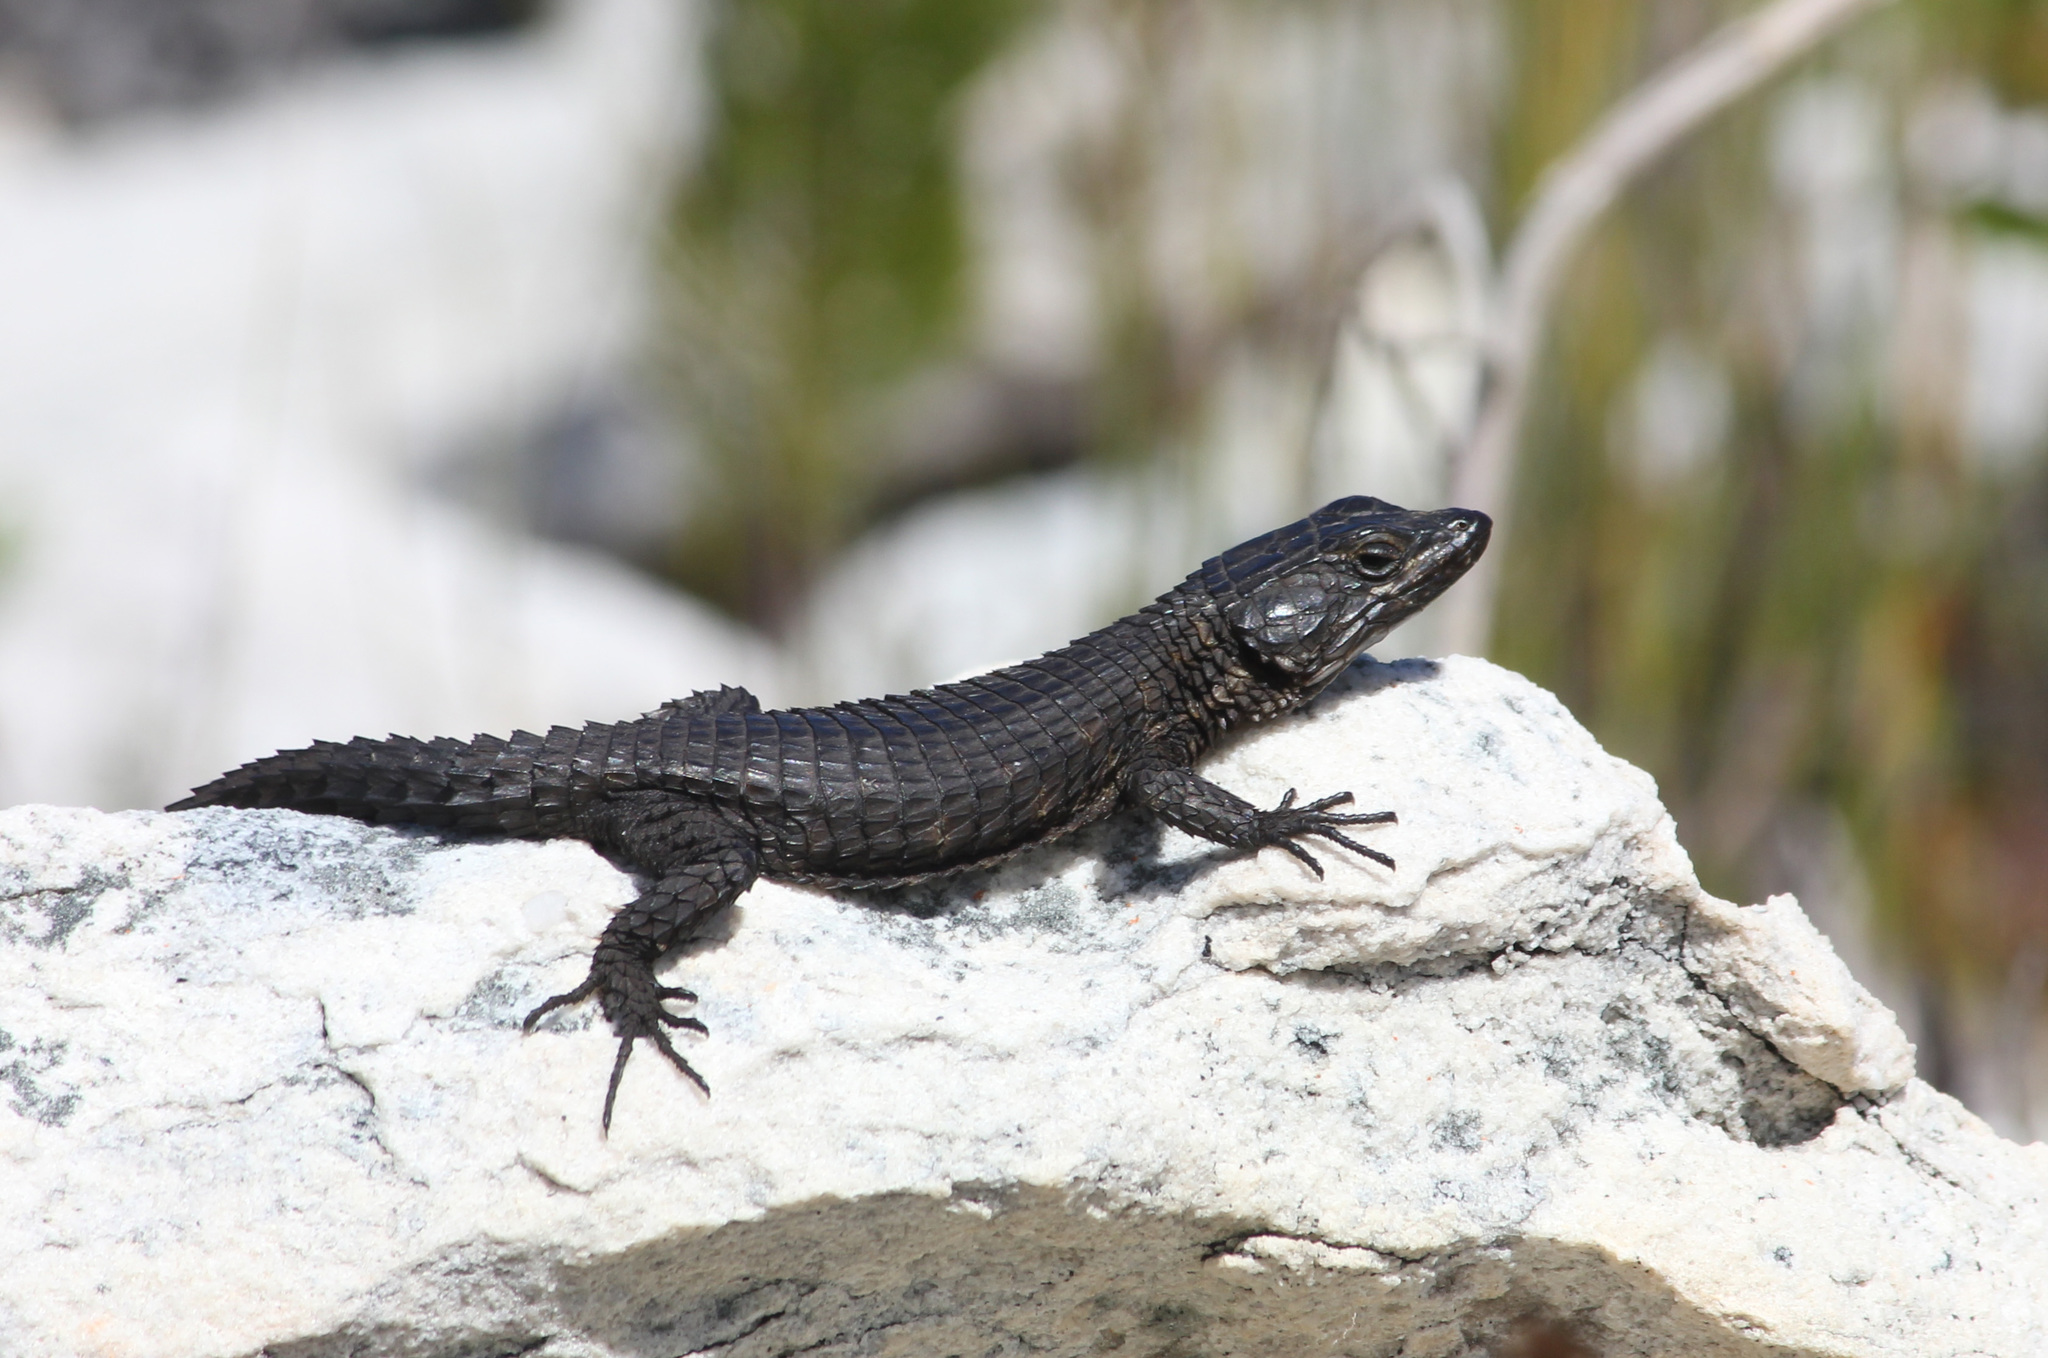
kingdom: Animalia
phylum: Chordata
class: Squamata
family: Cordylidae
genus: Cordylus
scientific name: Cordylus niger
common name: Black girdled lizard
